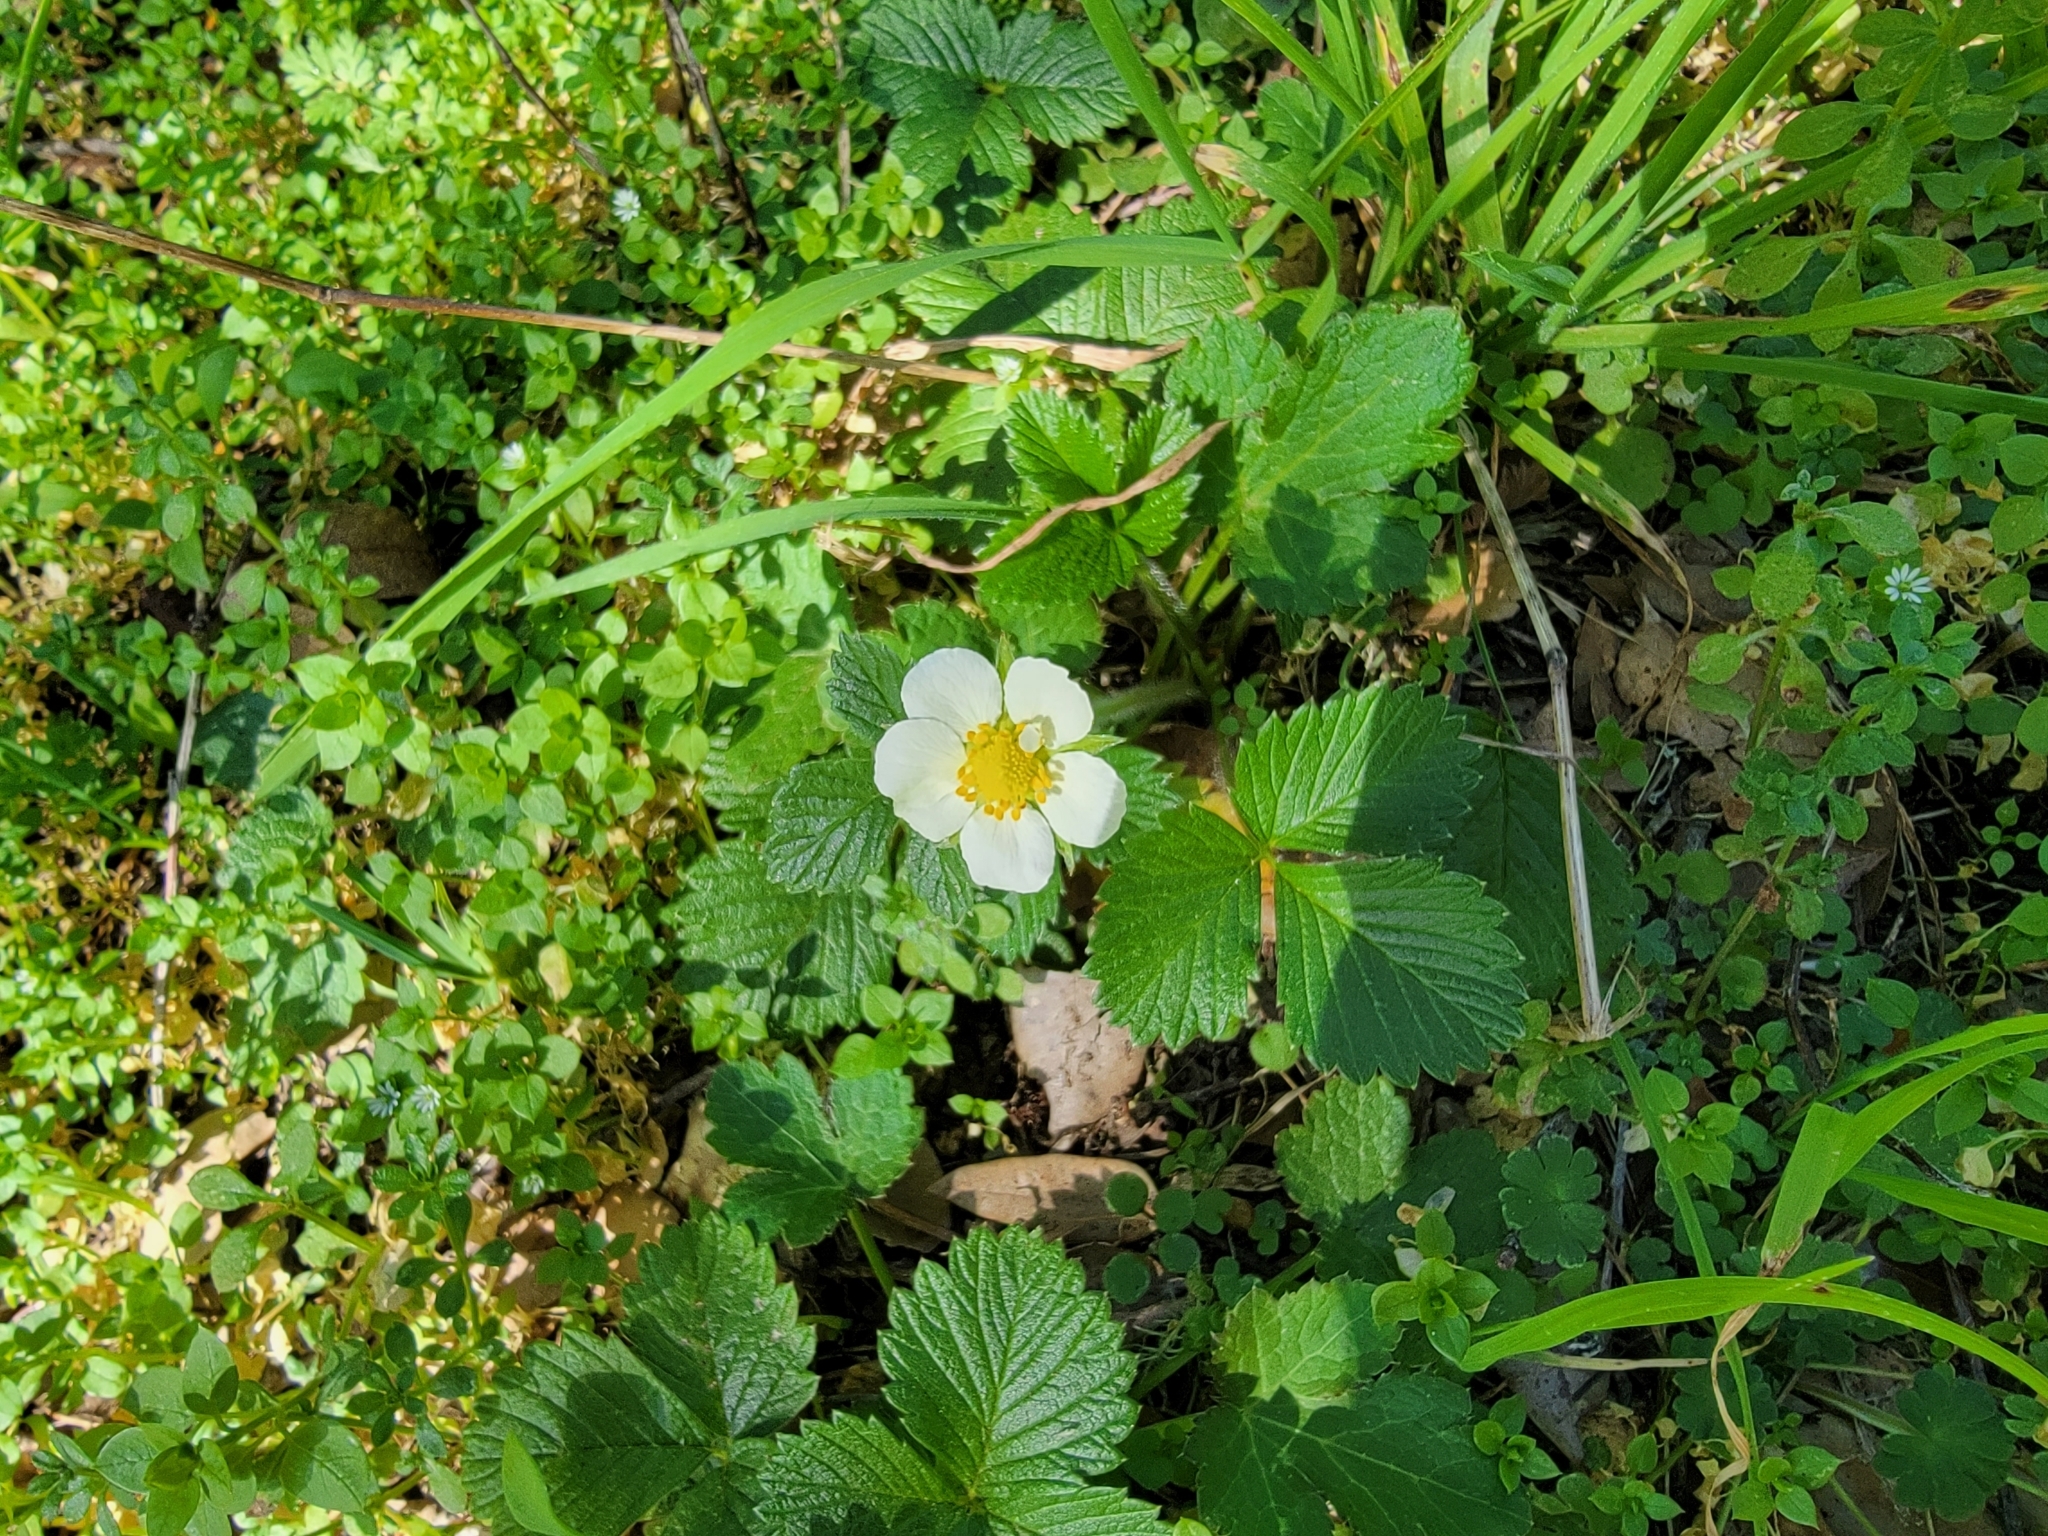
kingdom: Plantae
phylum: Tracheophyta
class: Magnoliopsida
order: Rosales
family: Rosaceae
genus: Fragaria
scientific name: Fragaria vesca
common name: Wild strawberry
